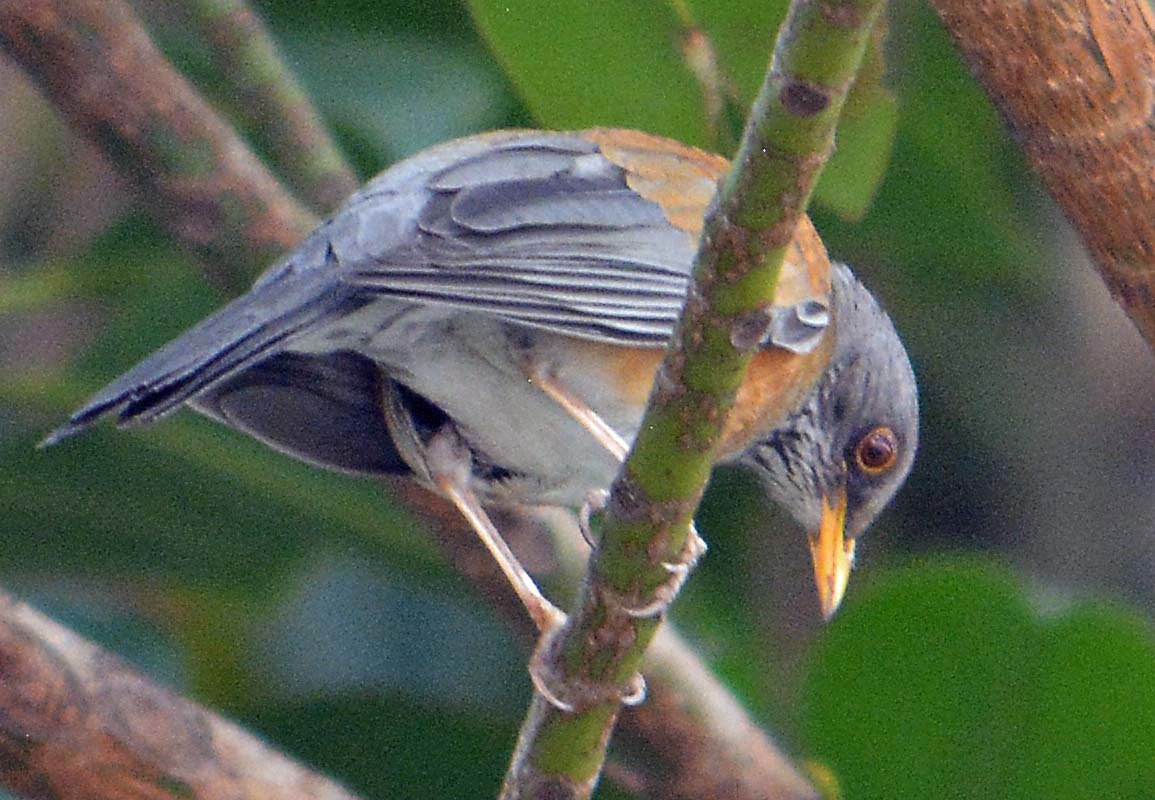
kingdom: Animalia
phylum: Chordata
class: Aves
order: Passeriformes
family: Turdidae
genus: Turdus
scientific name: Turdus rufopalliatus
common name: Rufous-backed robin
